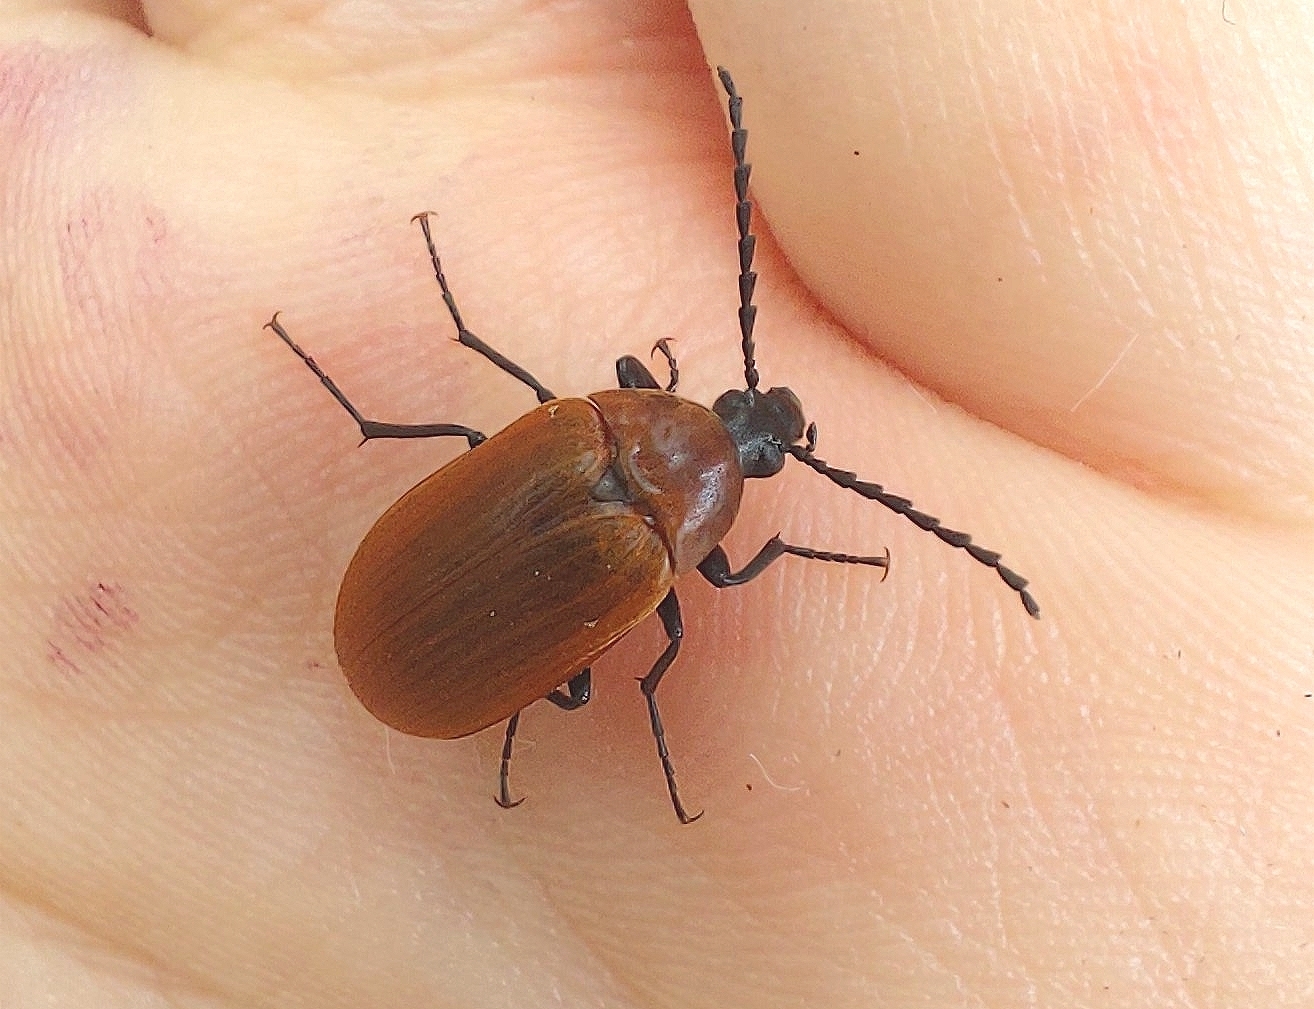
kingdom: Animalia
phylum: Arthropoda
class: Insecta
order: Coleoptera
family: Tenebrionidae
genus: Pseudocistela
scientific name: Pseudocistela ceramboides
